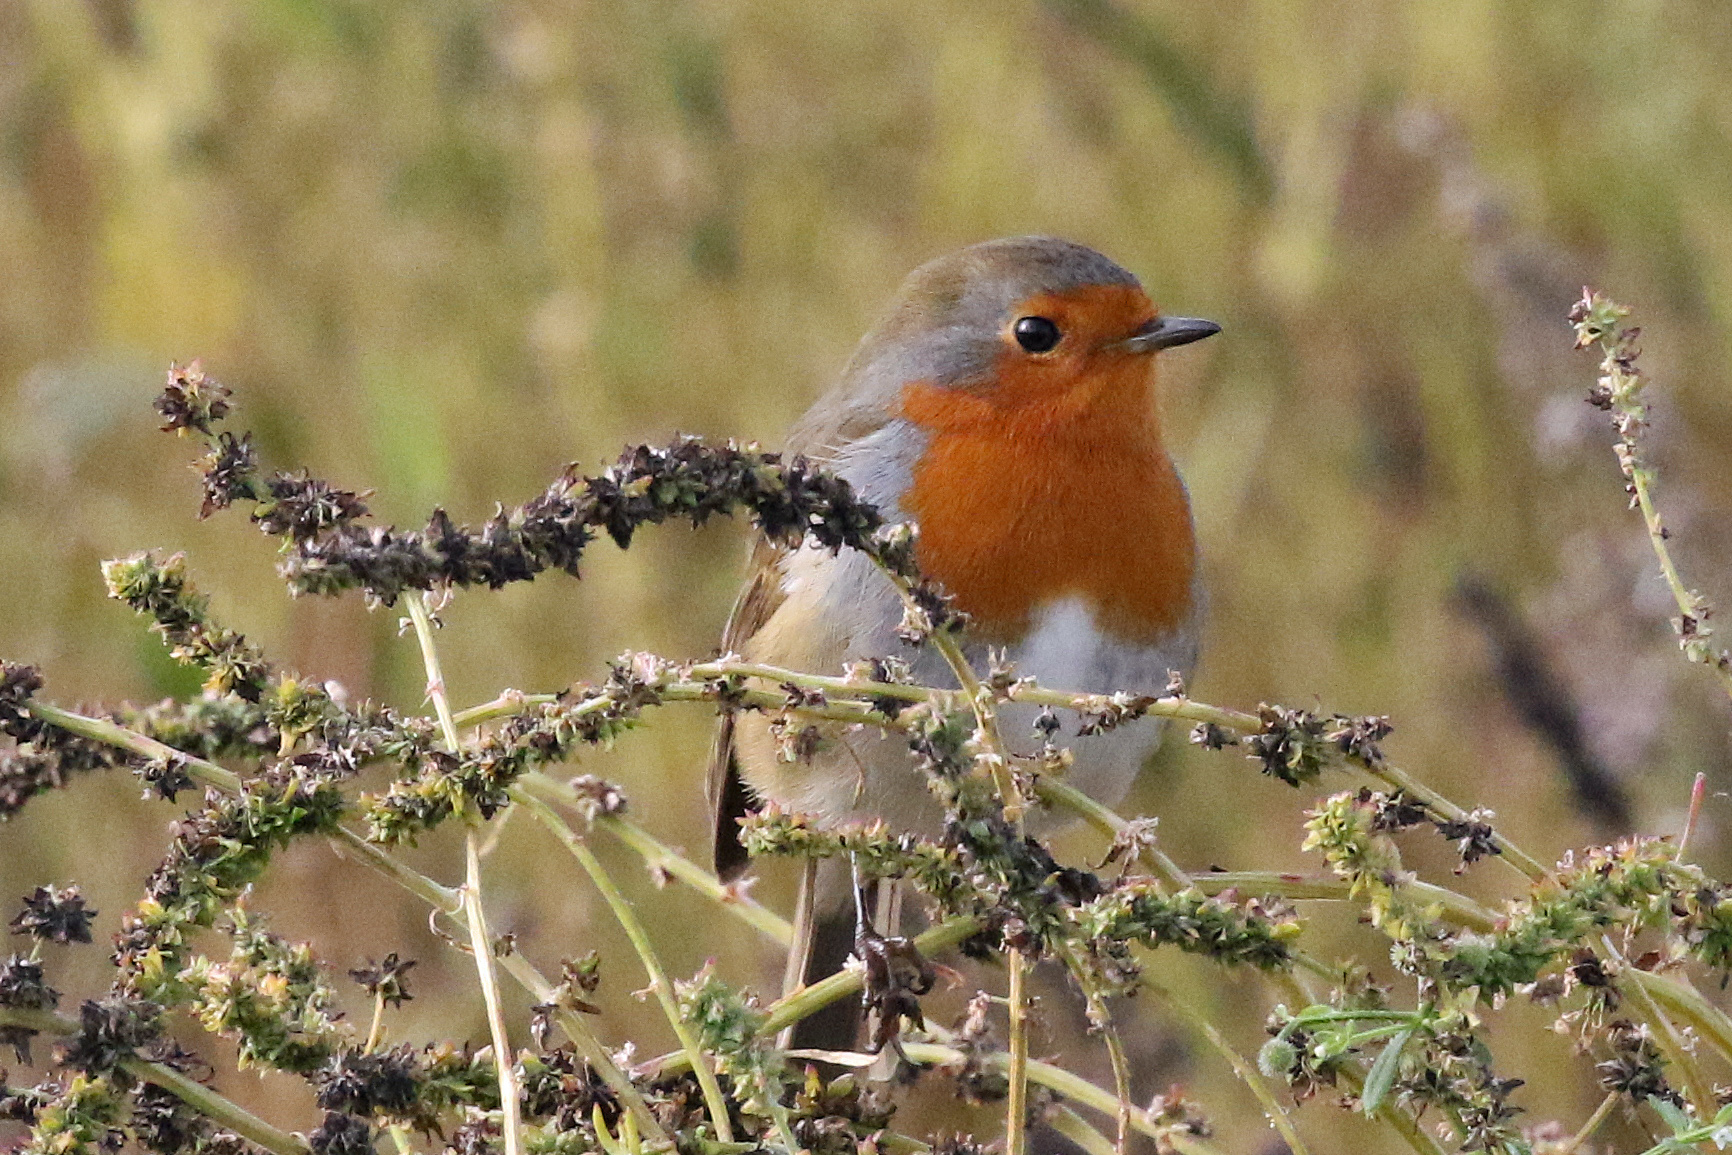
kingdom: Animalia
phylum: Chordata
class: Aves
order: Passeriformes
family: Muscicapidae
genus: Erithacus
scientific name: Erithacus rubecula
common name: European robin
